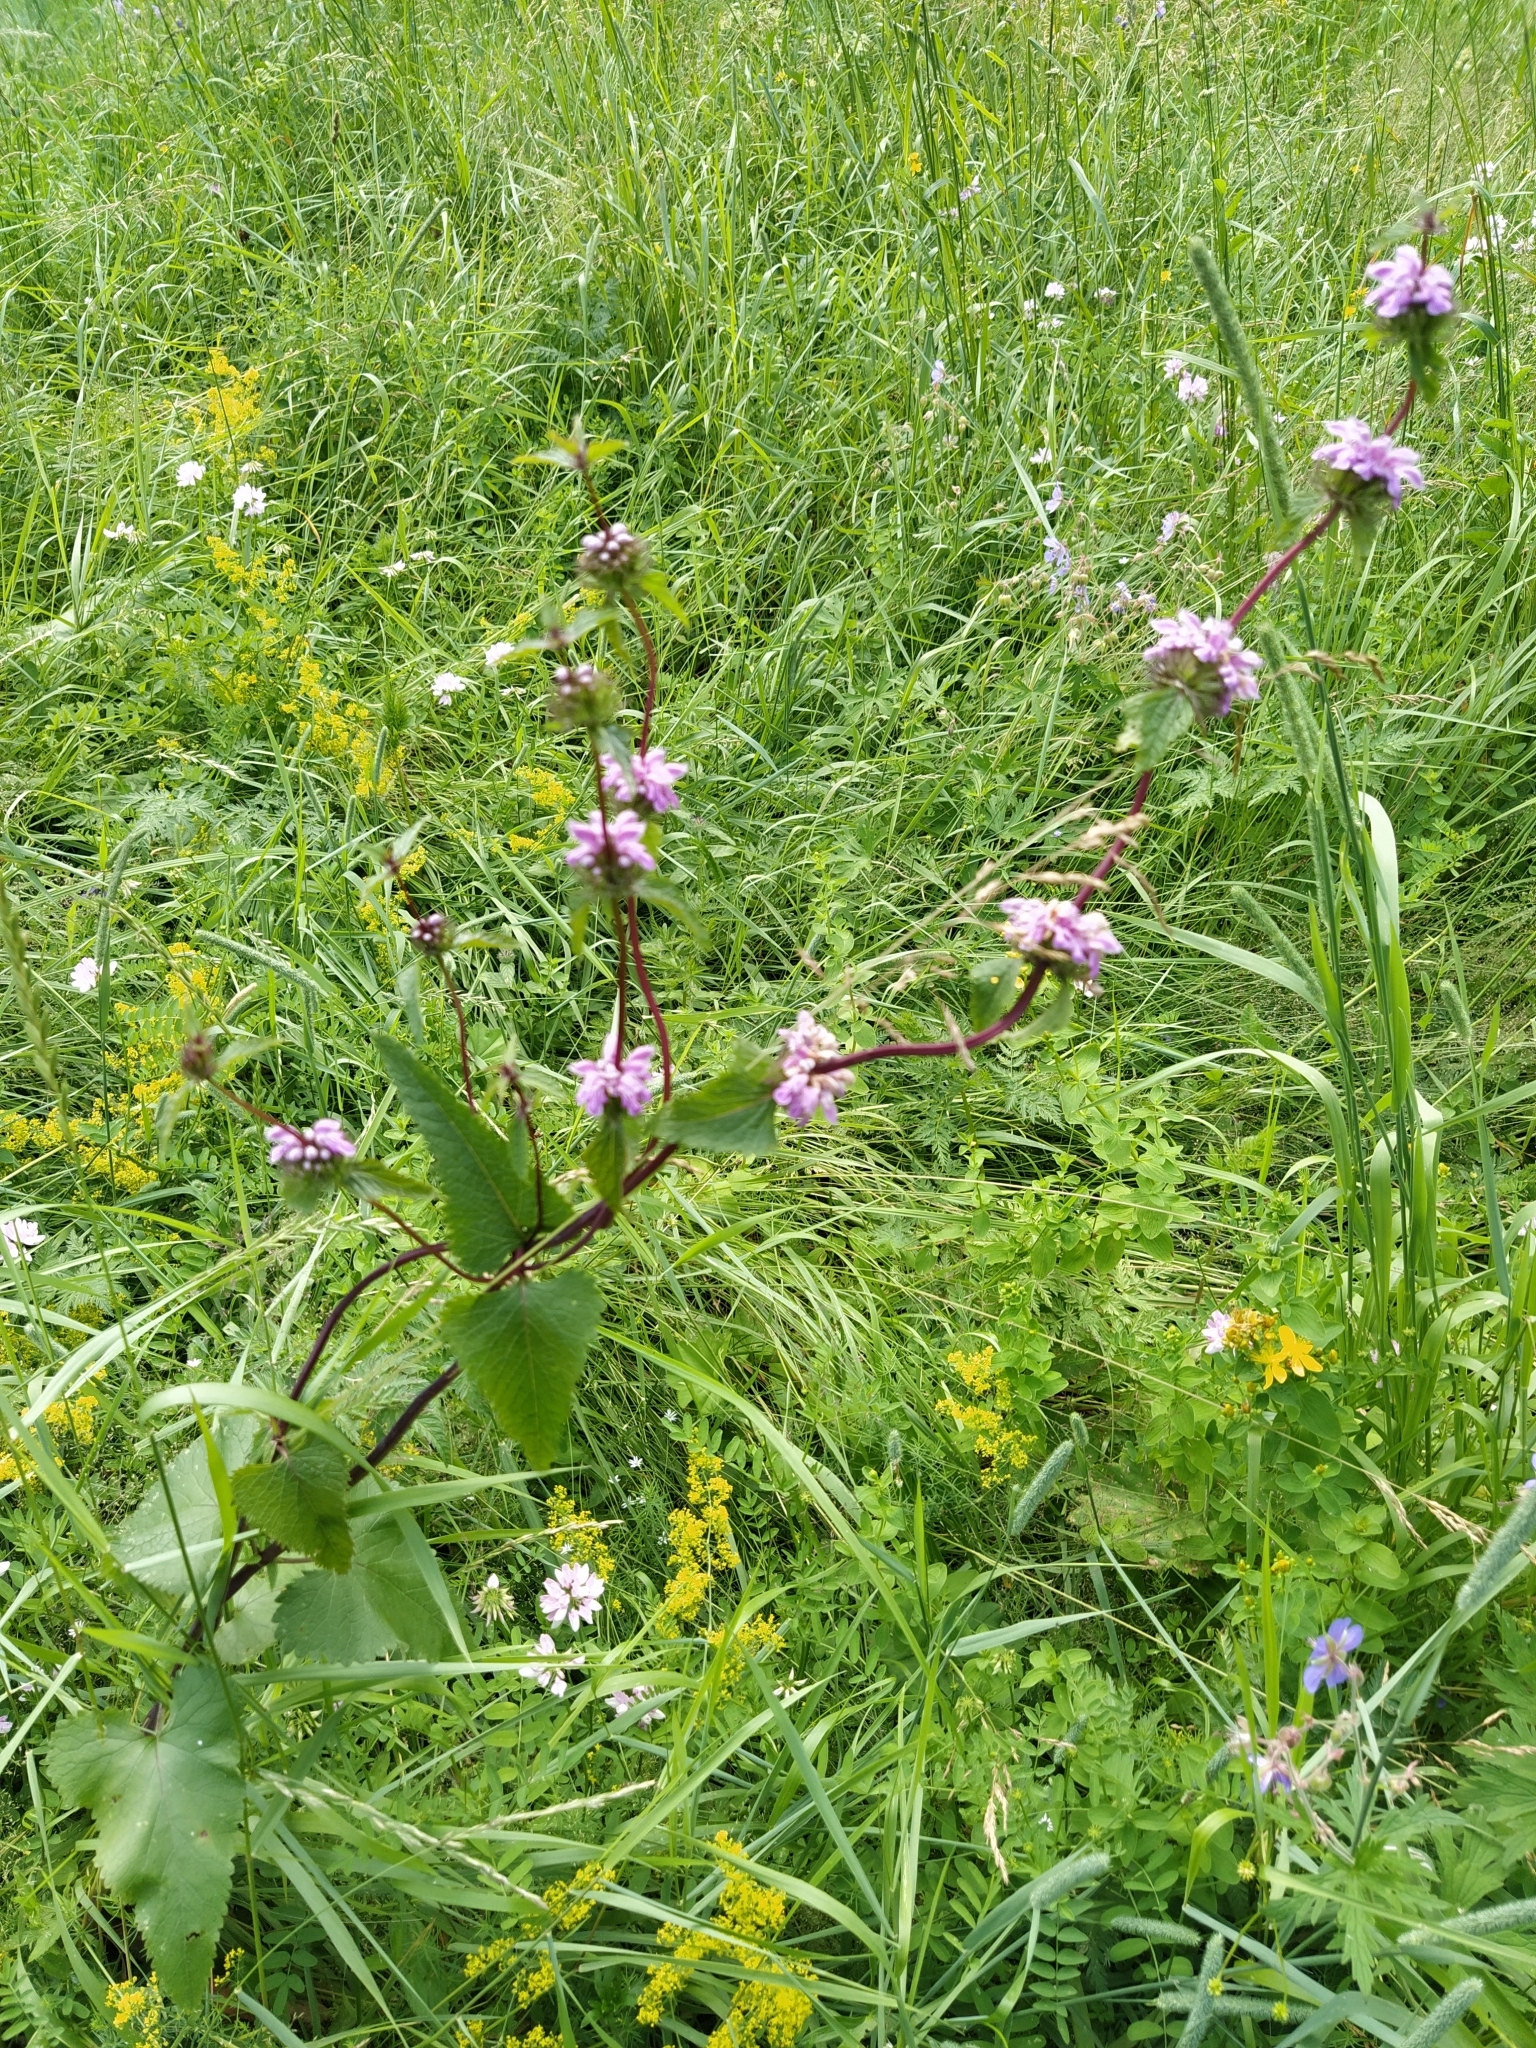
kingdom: Plantae
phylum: Tracheophyta
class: Magnoliopsida
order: Lamiales
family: Lamiaceae
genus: Phlomoides
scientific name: Phlomoides tuberosa
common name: Tuberous jerusalem sage
